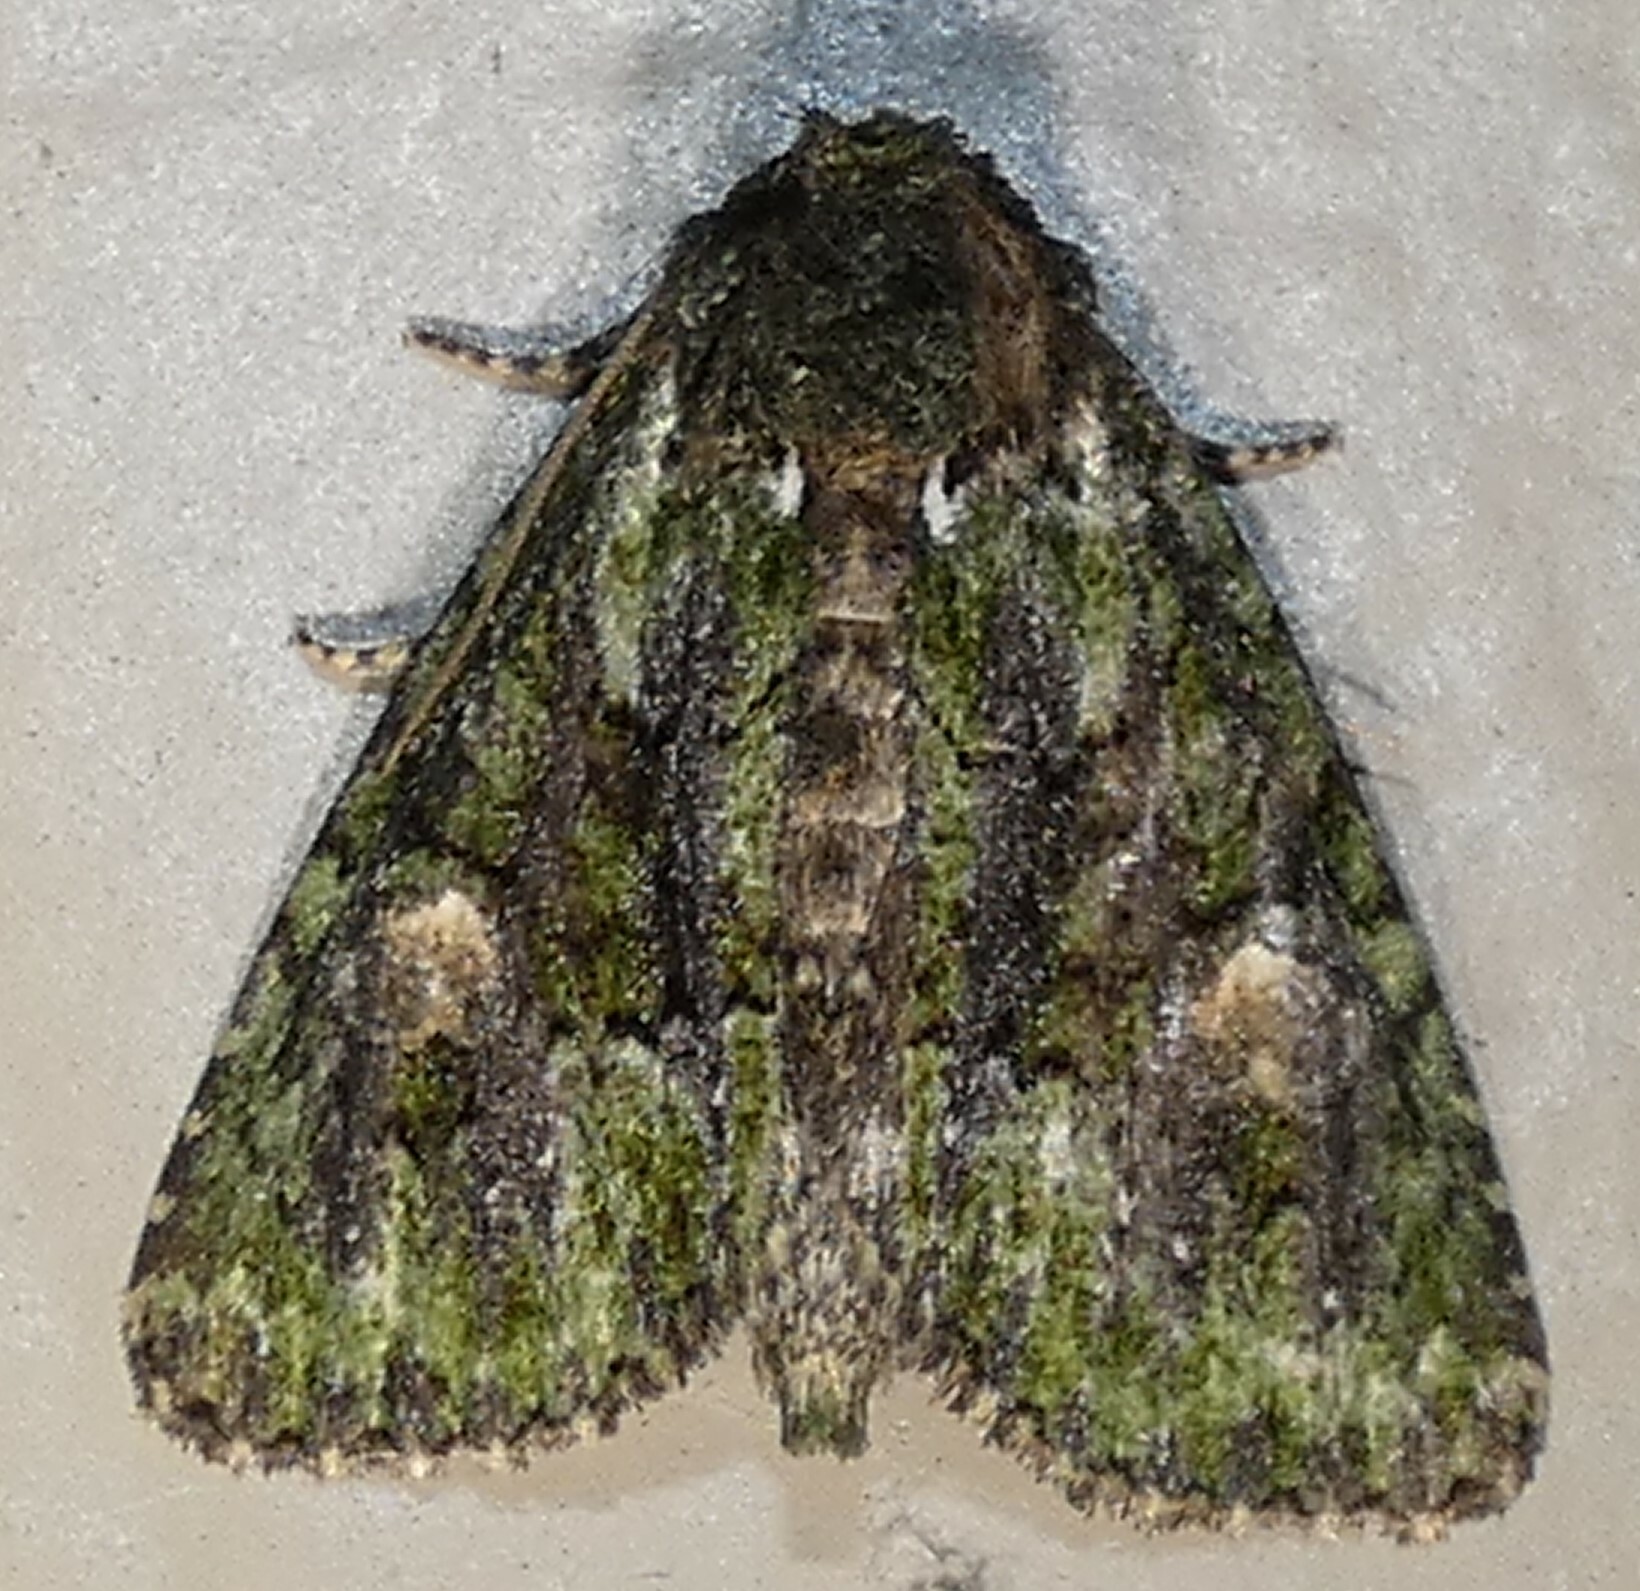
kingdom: Animalia
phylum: Arthropoda
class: Insecta
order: Lepidoptera
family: Noctuidae
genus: Phosphila
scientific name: Phosphila miselioides
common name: Spotted phosphila moth
